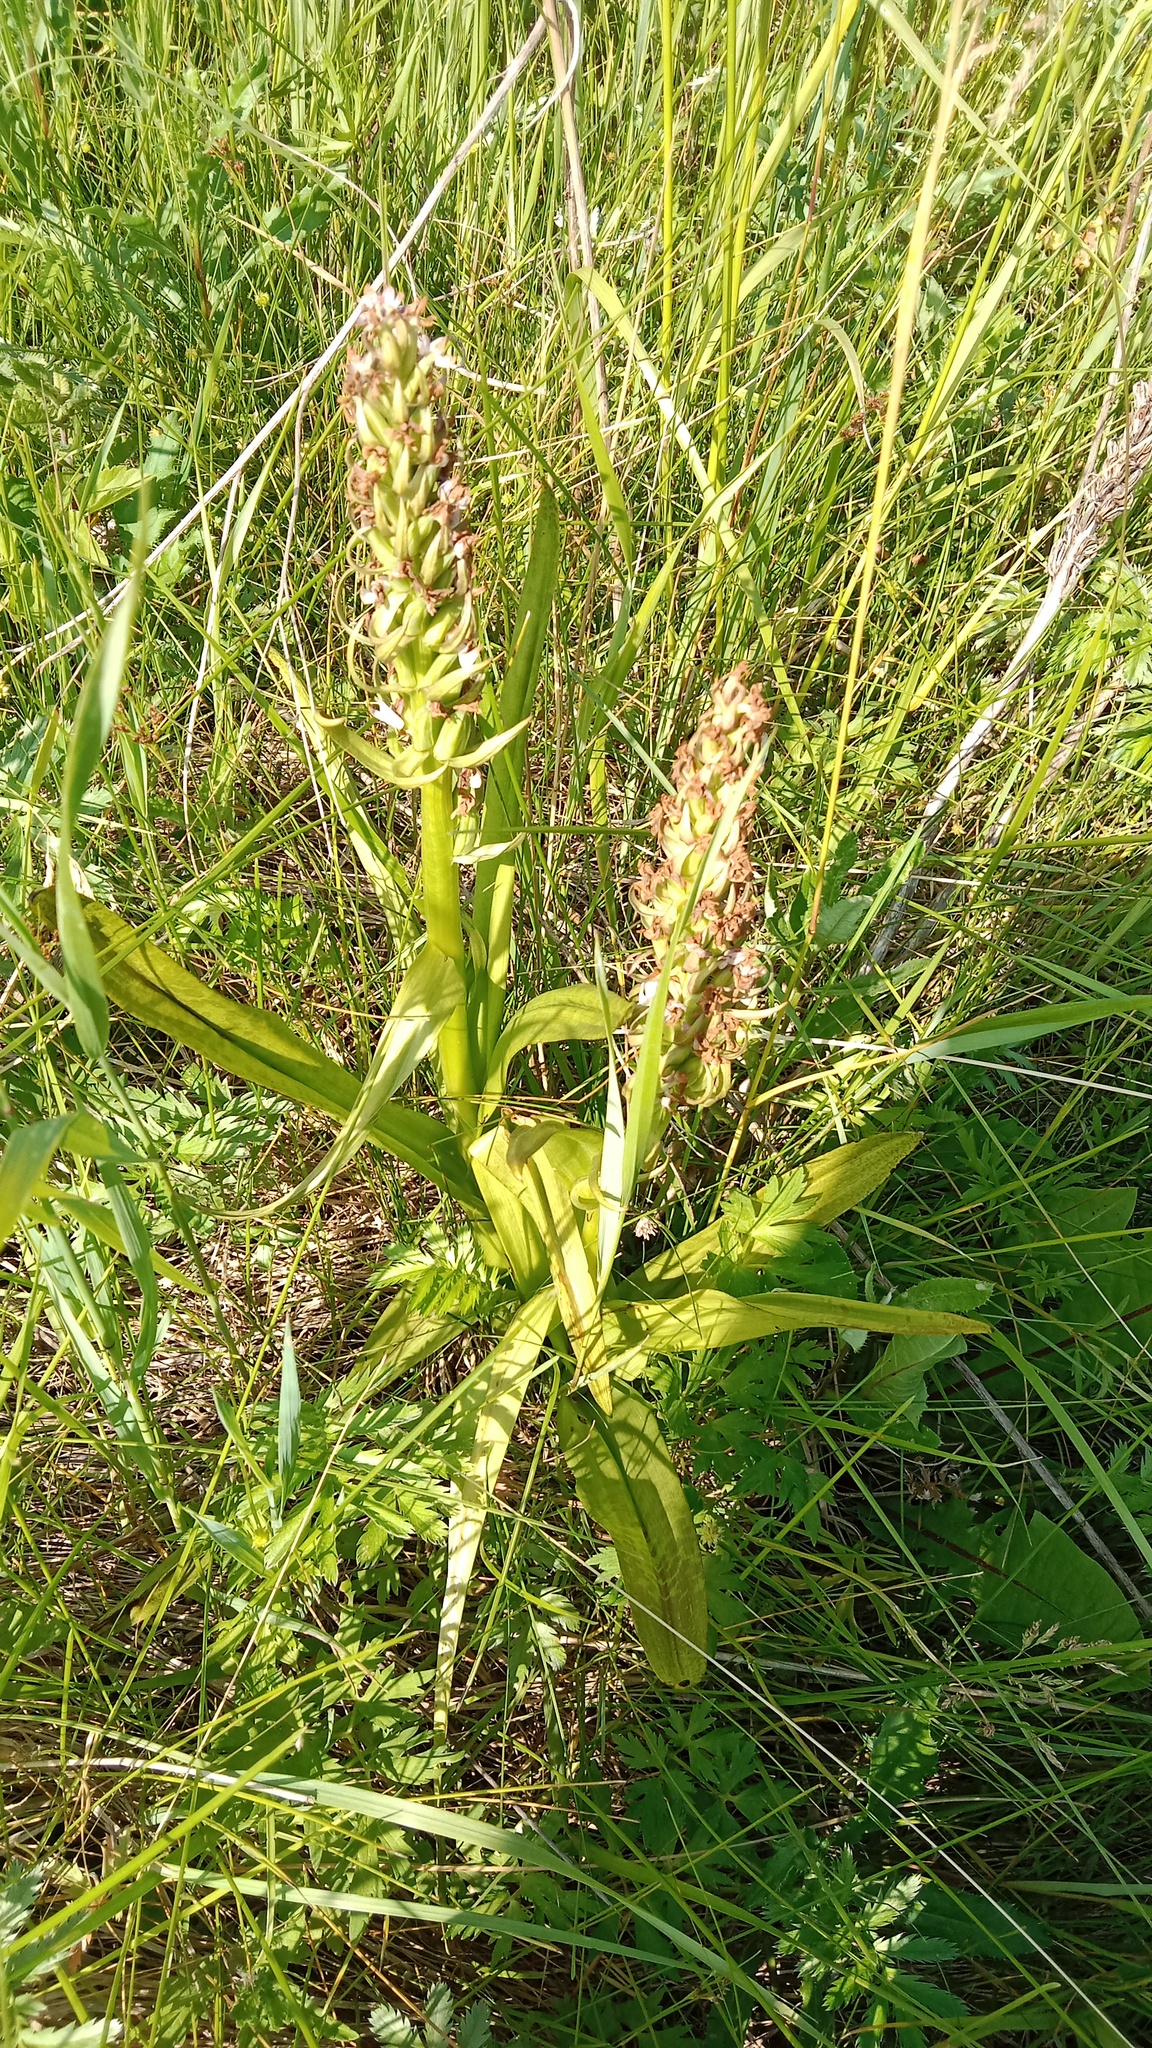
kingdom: Plantae
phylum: Tracheophyta
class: Liliopsida
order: Asparagales
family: Orchidaceae
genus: Dactylorhiza
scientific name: Dactylorhiza incarnata
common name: Early marsh-orchid
